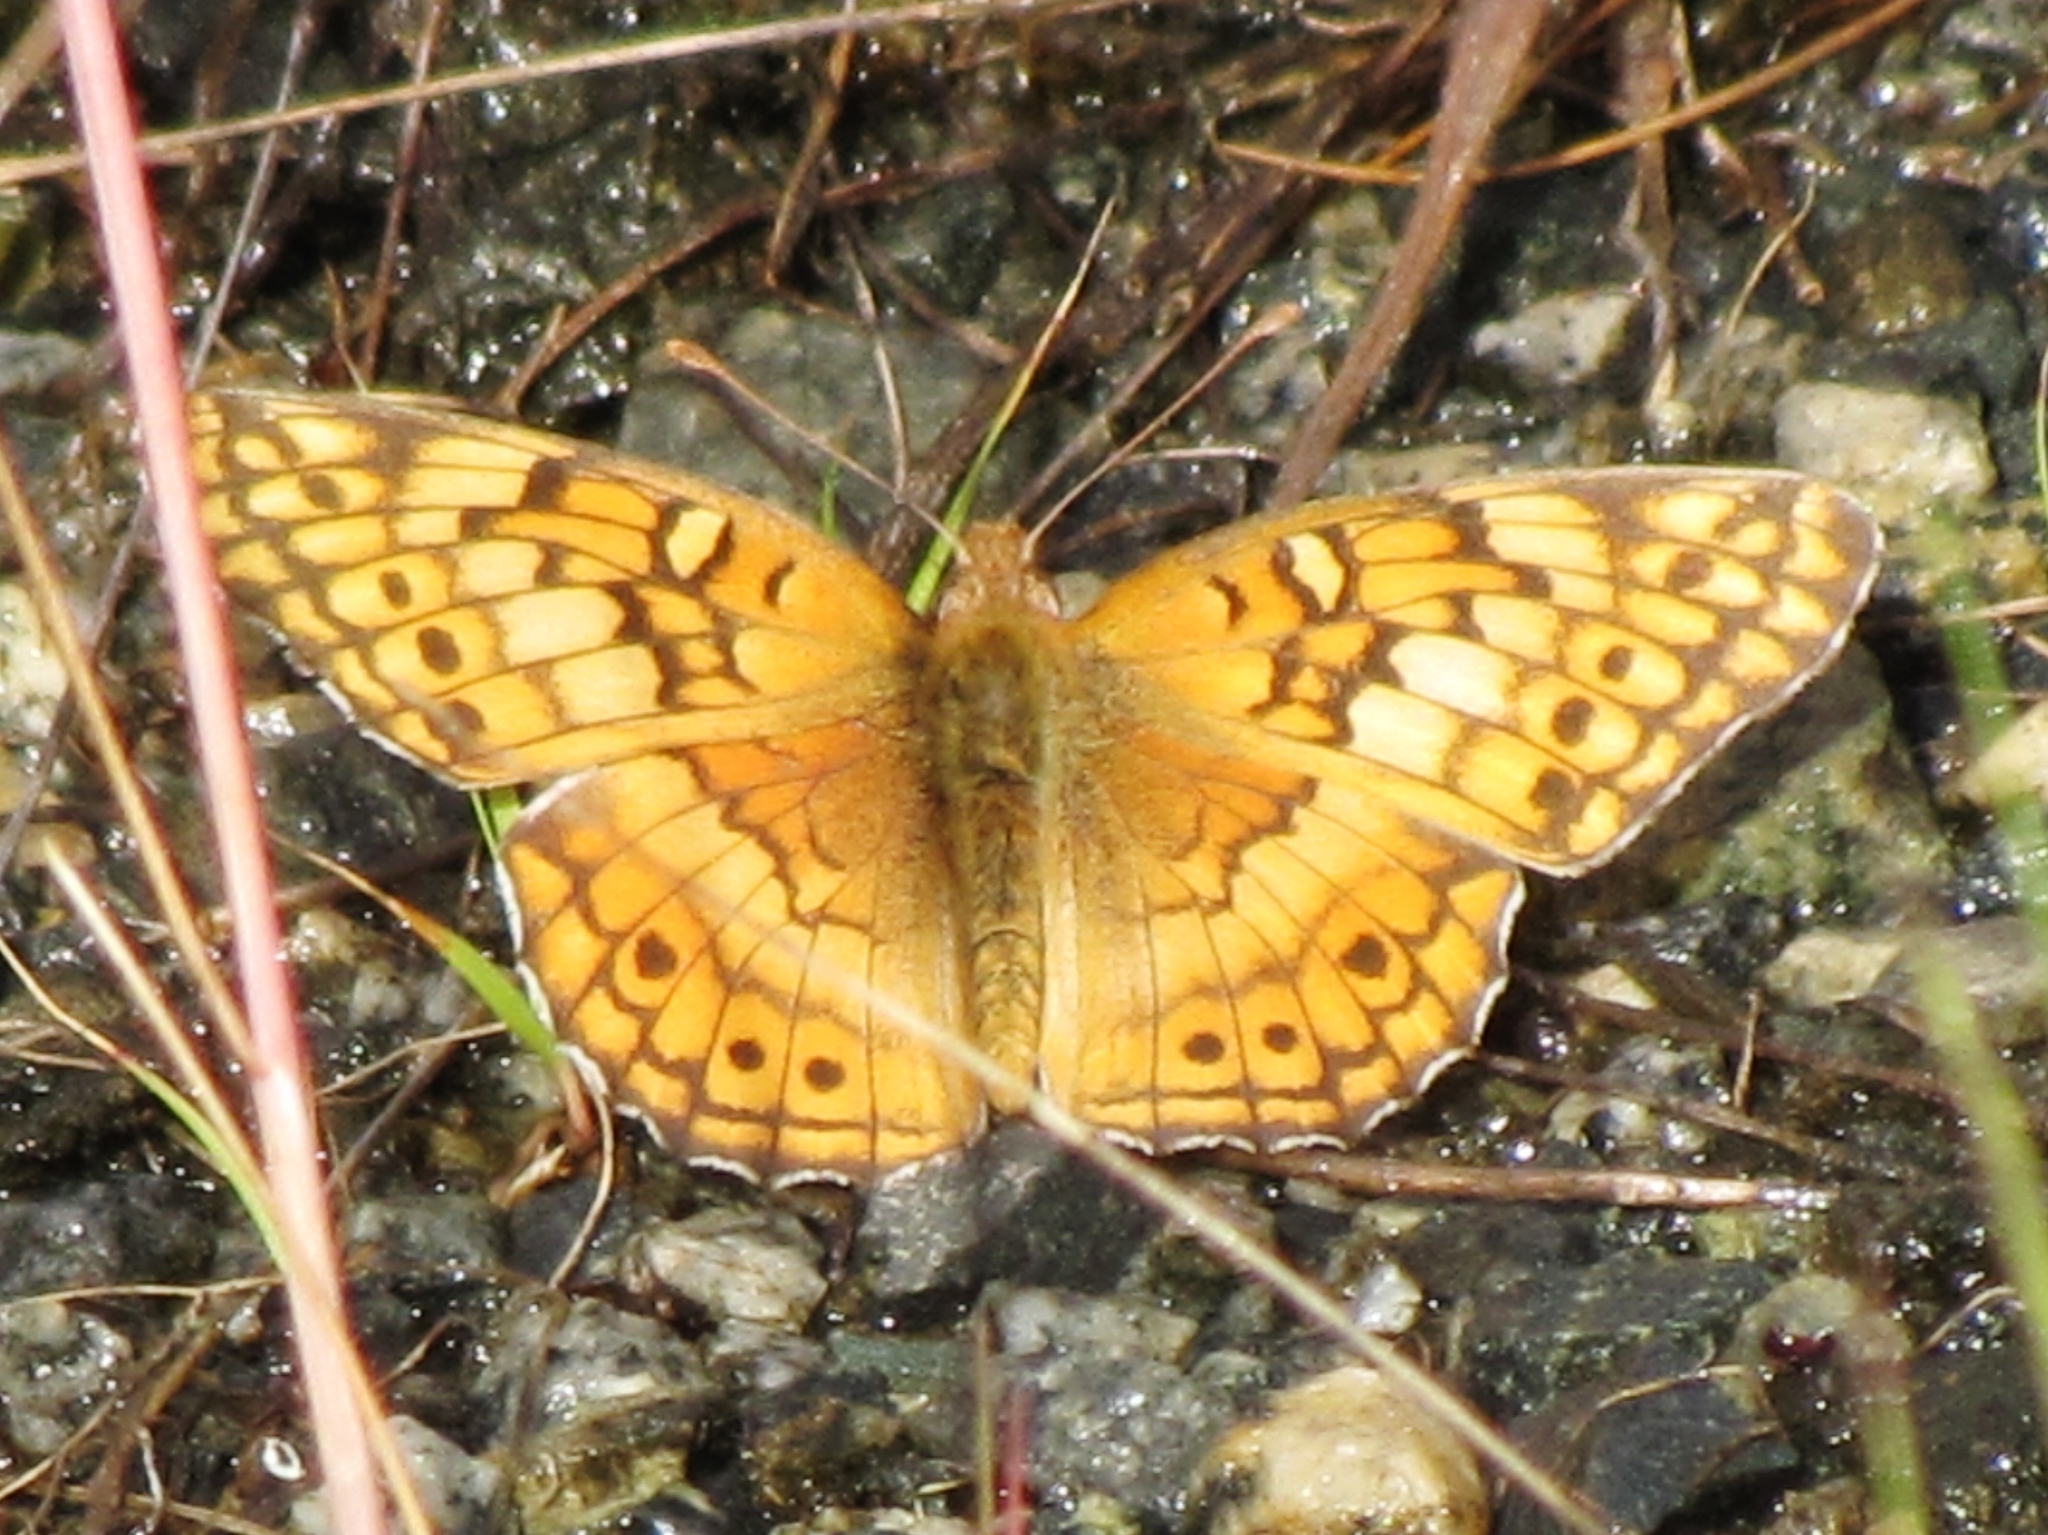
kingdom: Animalia
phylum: Arthropoda
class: Insecta
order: Lepidoptera
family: Nymphalidae
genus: Euptoieta
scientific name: Euptoieta claudia
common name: Variegated fritillary
